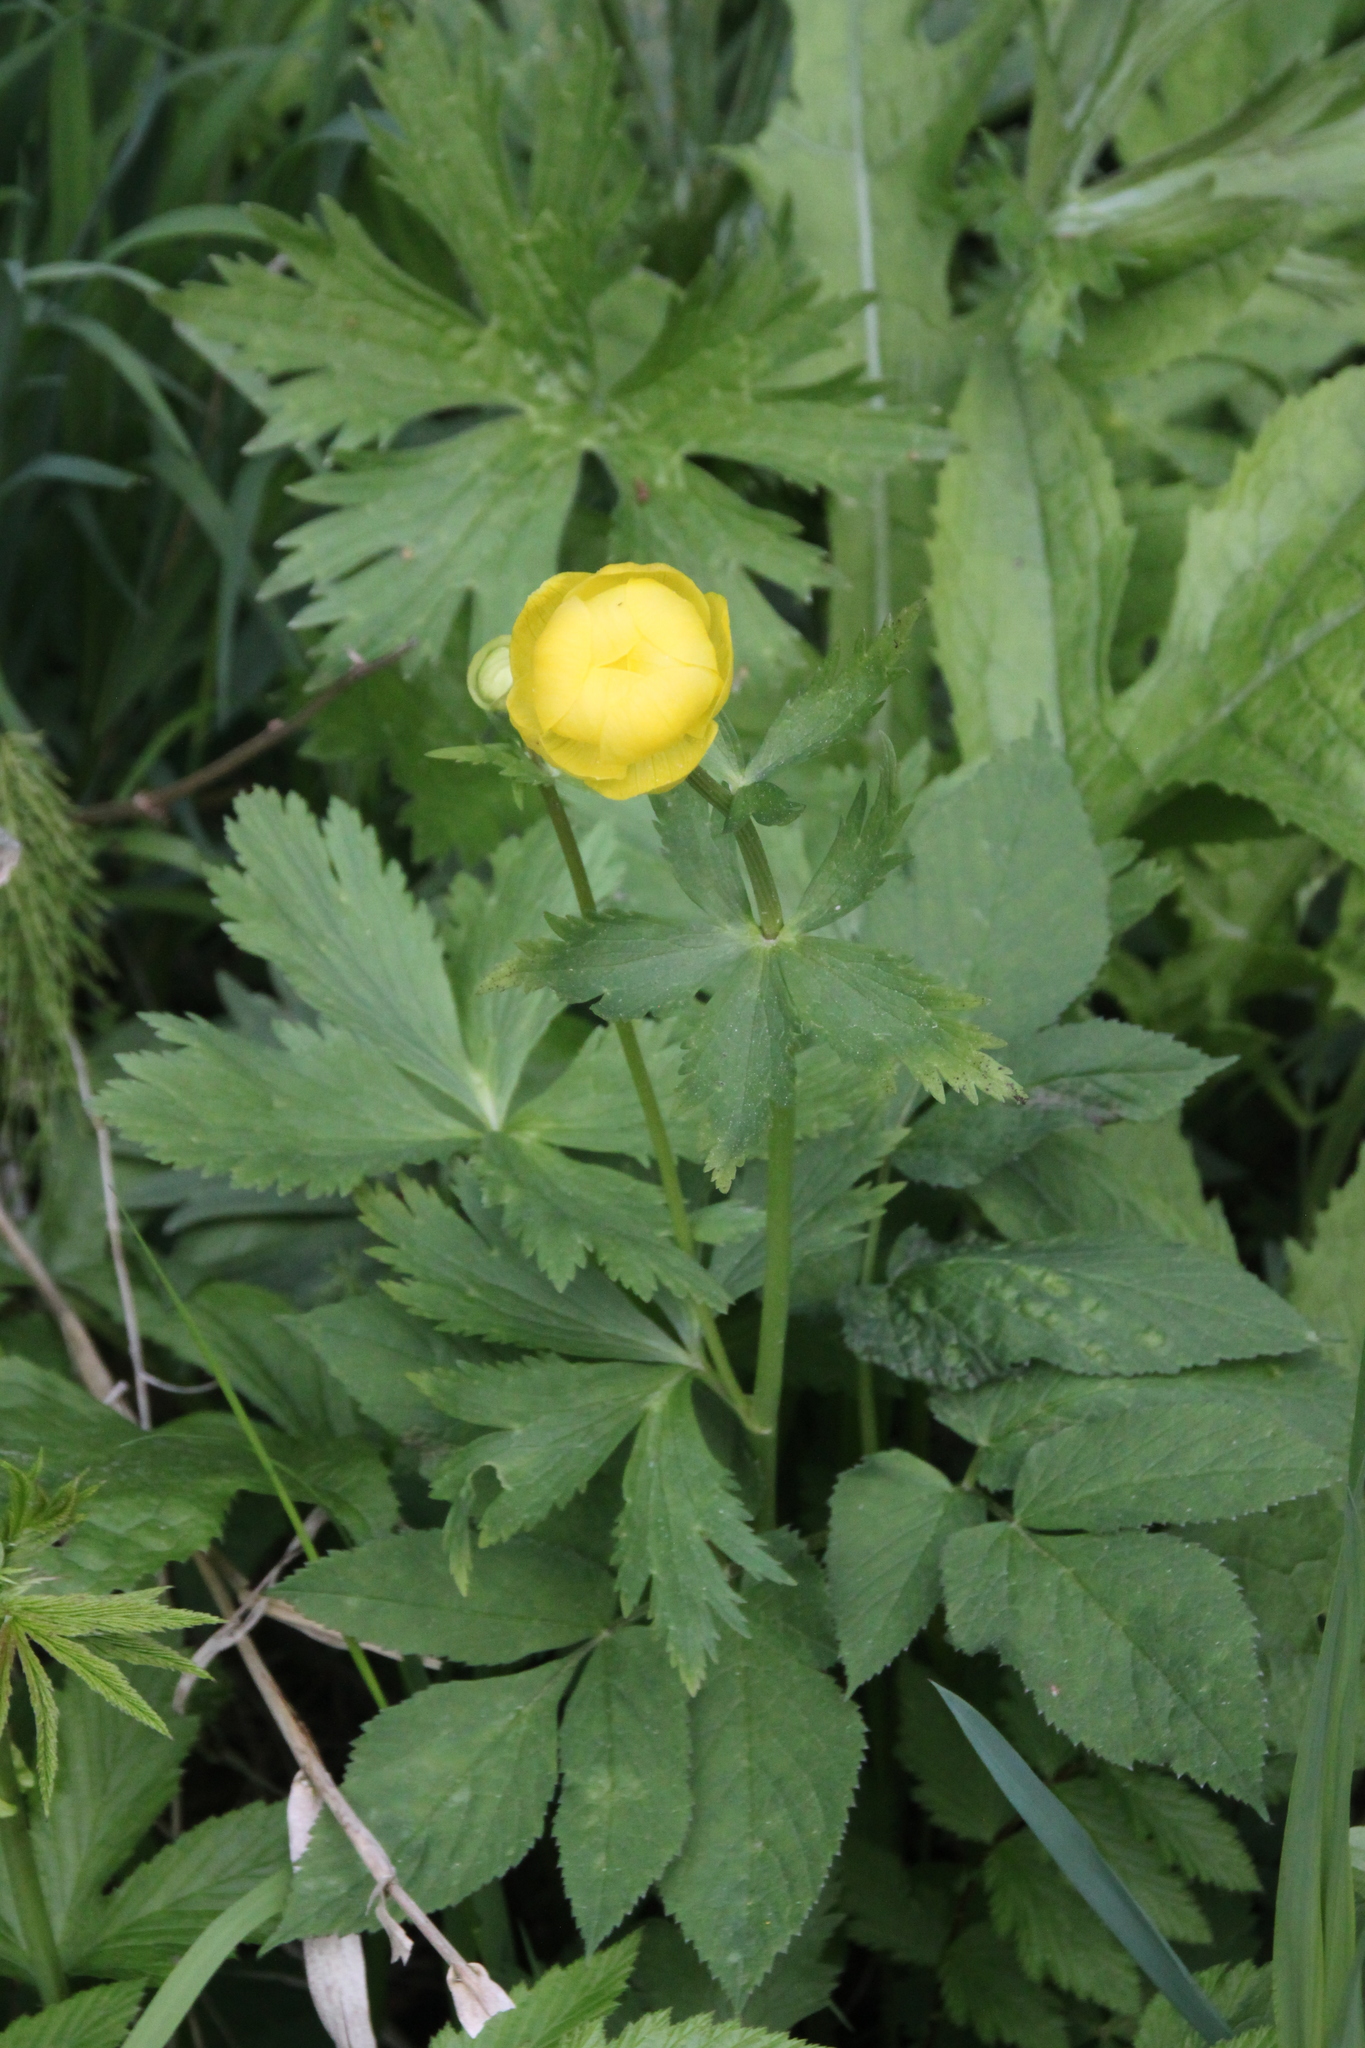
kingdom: Plantae
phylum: Tracheophyta
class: Magnoliopsida
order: Ranunculales
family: Ranunculaceae
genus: Trollius
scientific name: Trollius europaeus
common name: European globeflower
